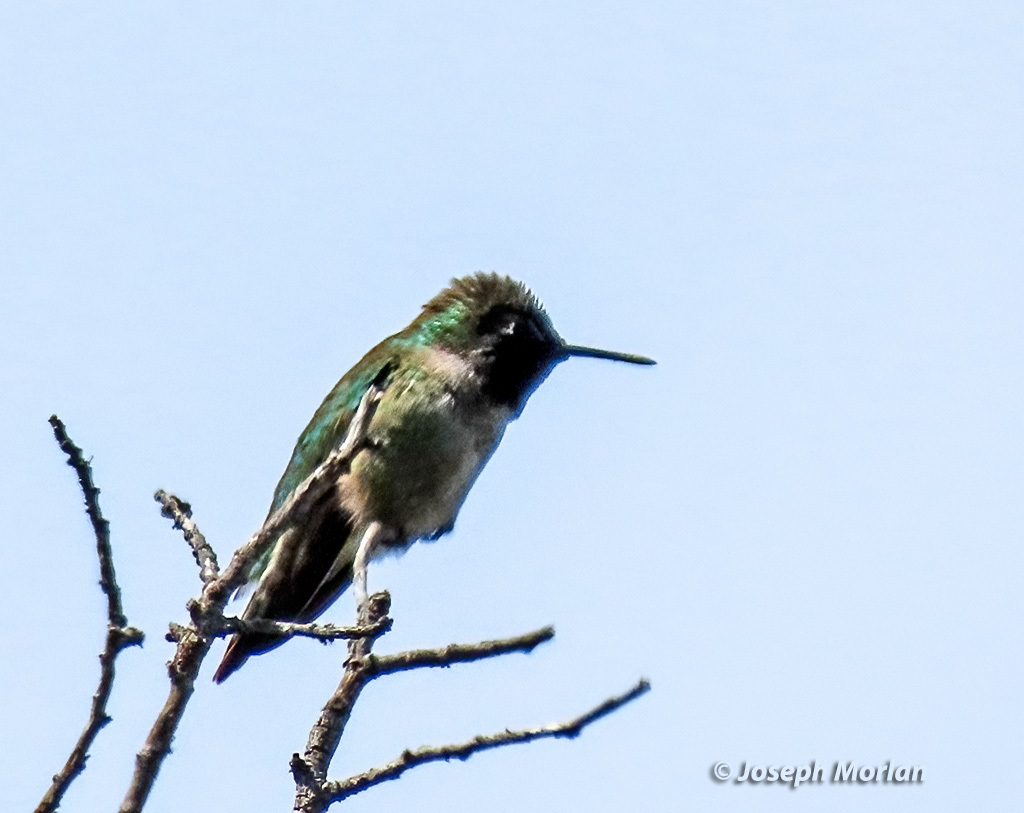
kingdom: Animalia
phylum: Chordata
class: Aves
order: Apodiformes
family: Trochilidae
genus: Calypte
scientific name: Calypte anna
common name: Anna's hummingbird
